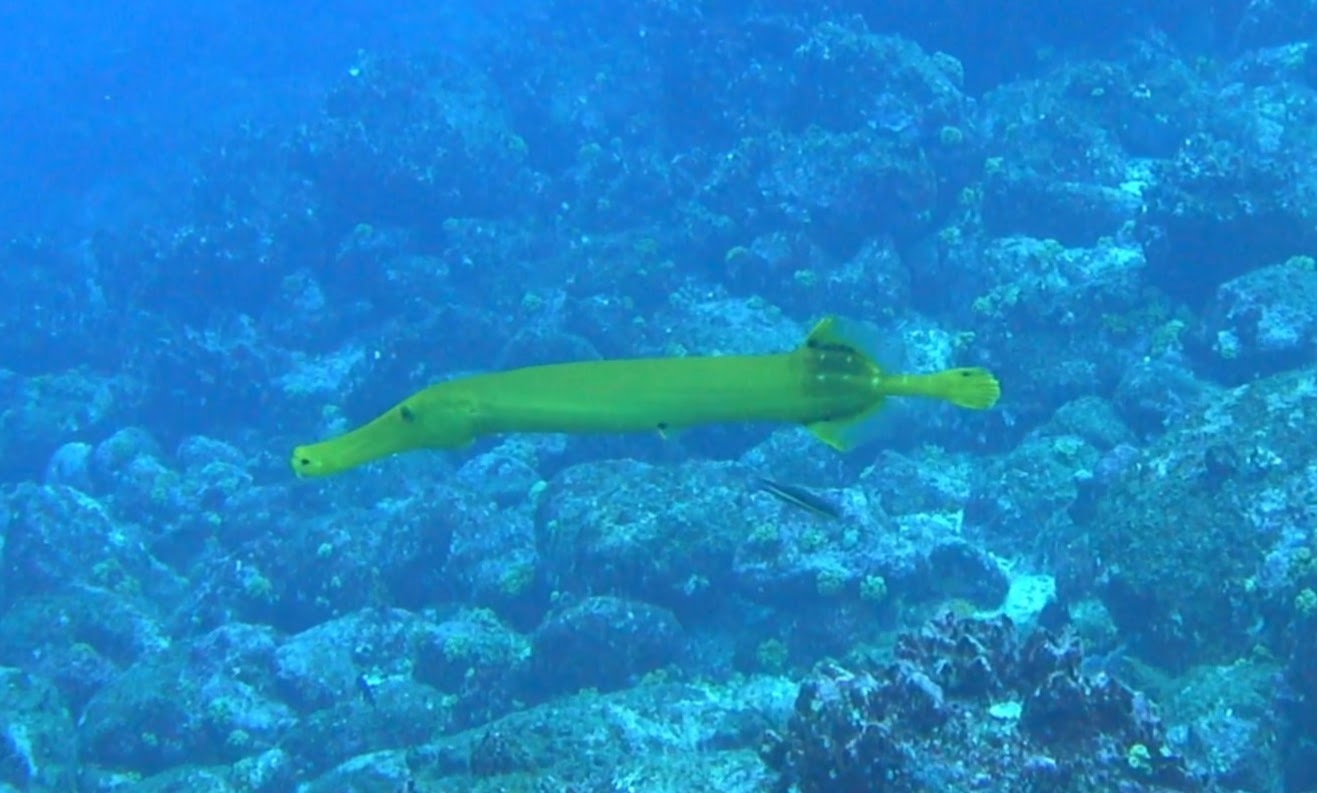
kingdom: Animalia
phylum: Chordata
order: Syngnathiformes
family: Aulostomidae
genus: Aulostomus
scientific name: Aulostomus chinensis
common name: Chinese trumpetfish
